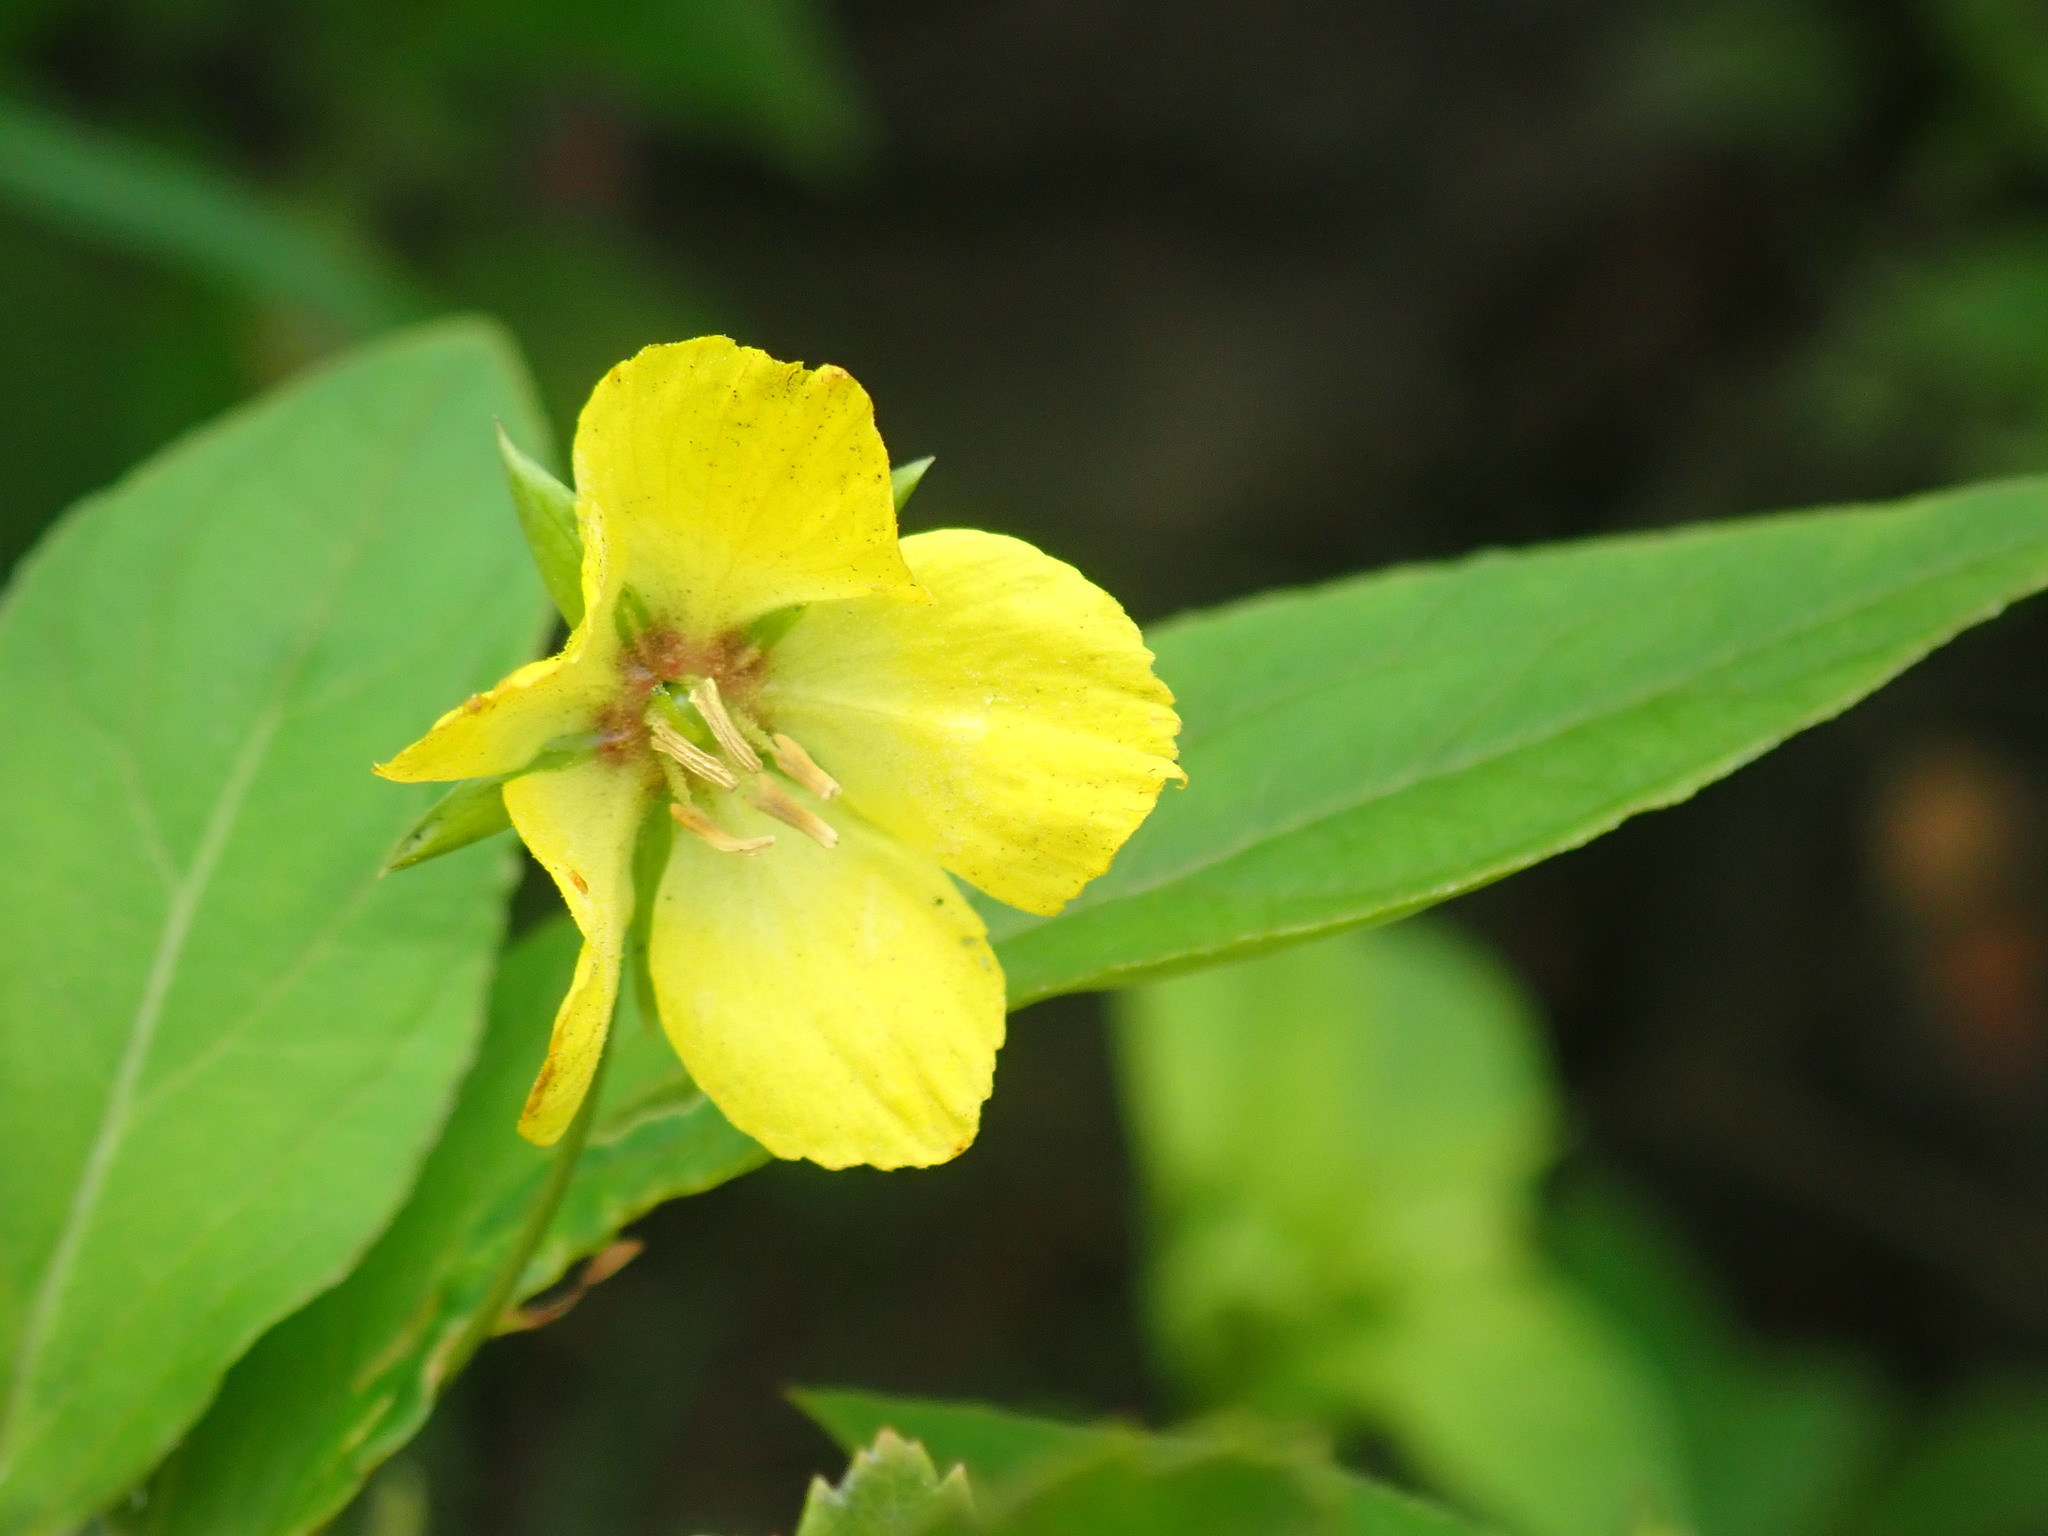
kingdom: Plantae
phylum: Tracheophyta
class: Magnoliopsida
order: Ericales
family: Primulaceae
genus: Lysimachia
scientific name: Lysimachia ciliata
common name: Fringed loosestrife
